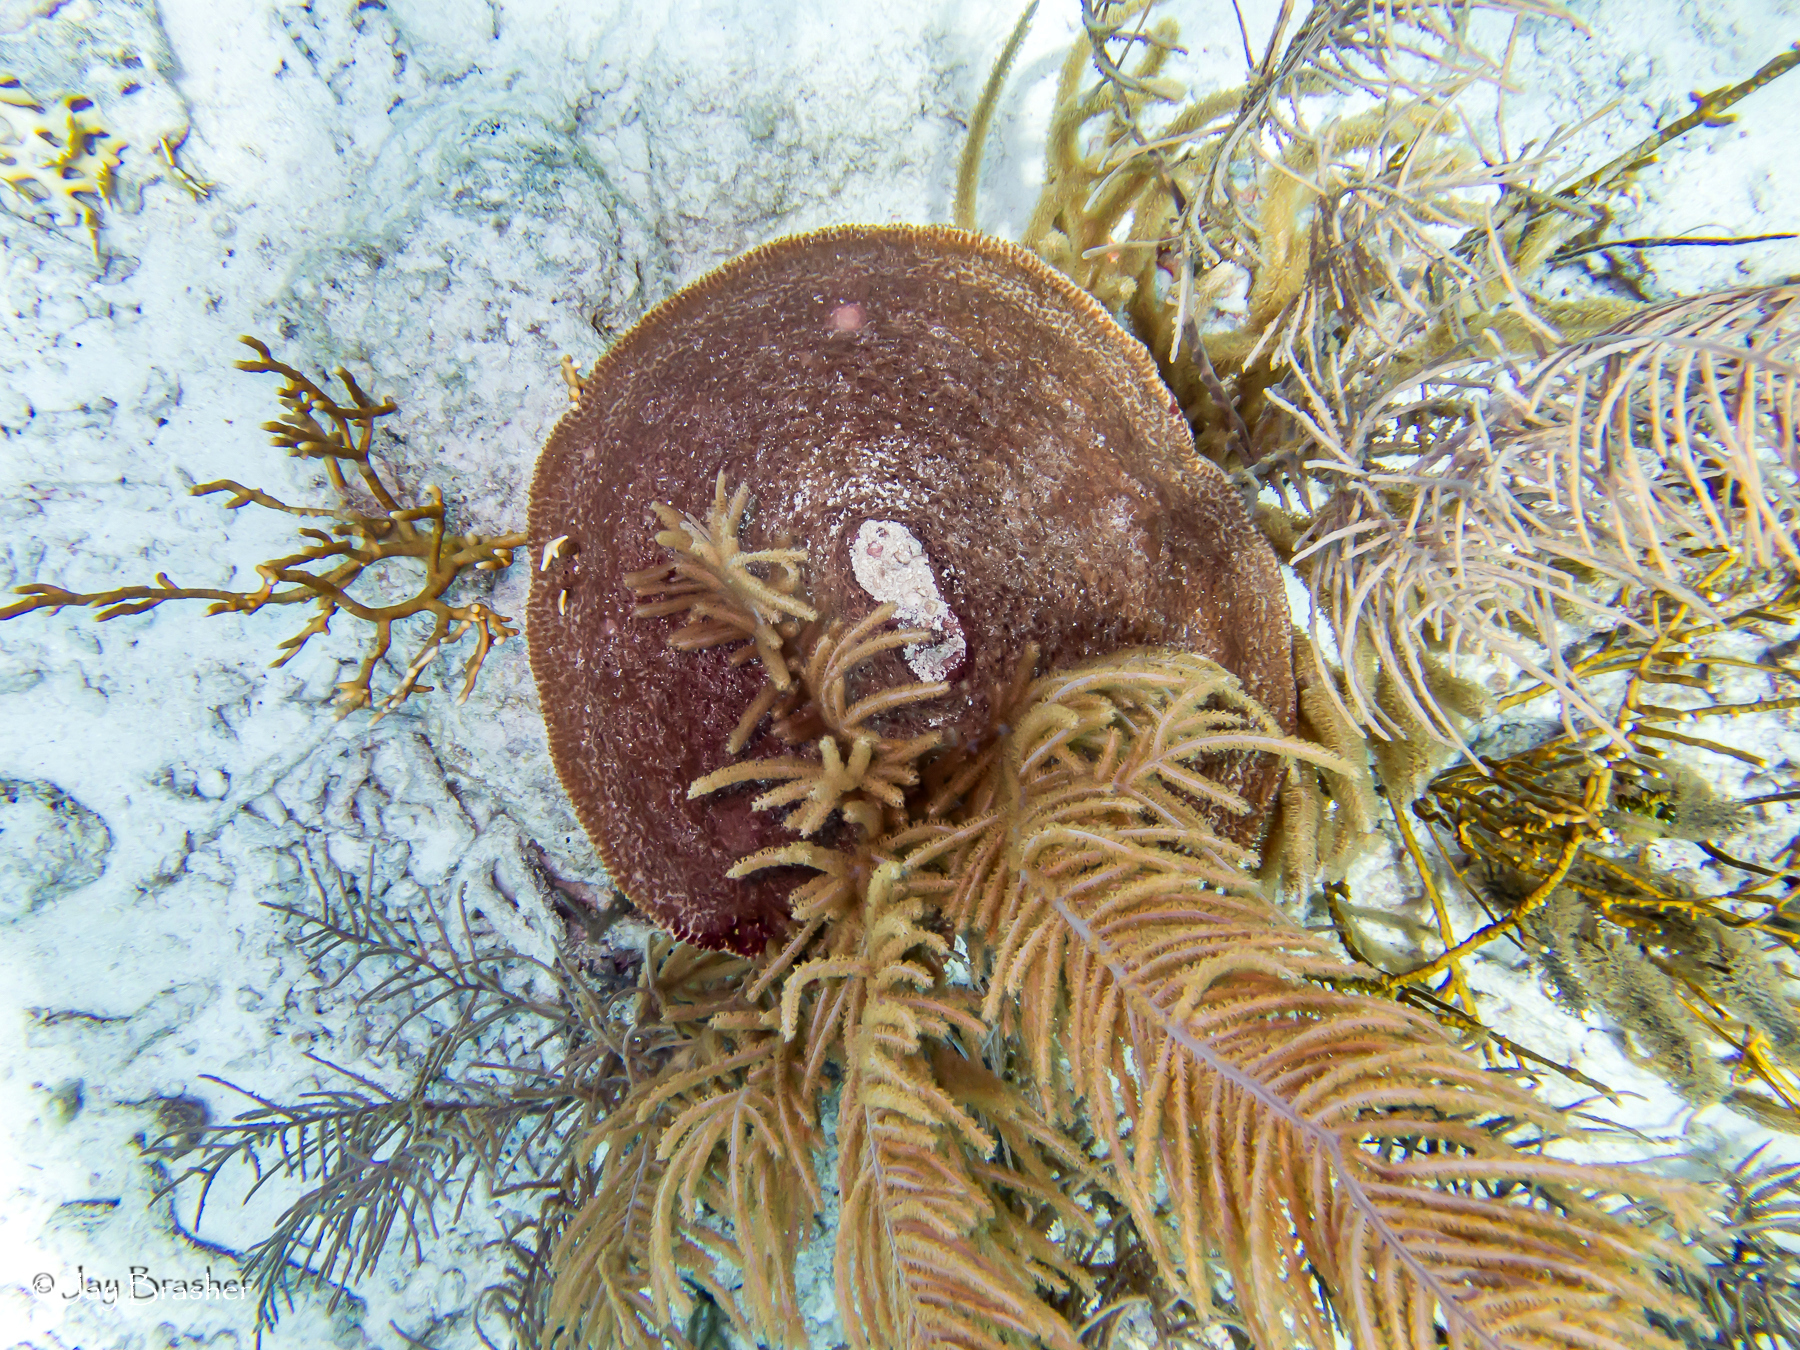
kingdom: Animalia
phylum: Porifera
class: Demospongiae
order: Dictyoceratida
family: Irciniidae
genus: Ircinia
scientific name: Ircinia campana
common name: Vase sponge
